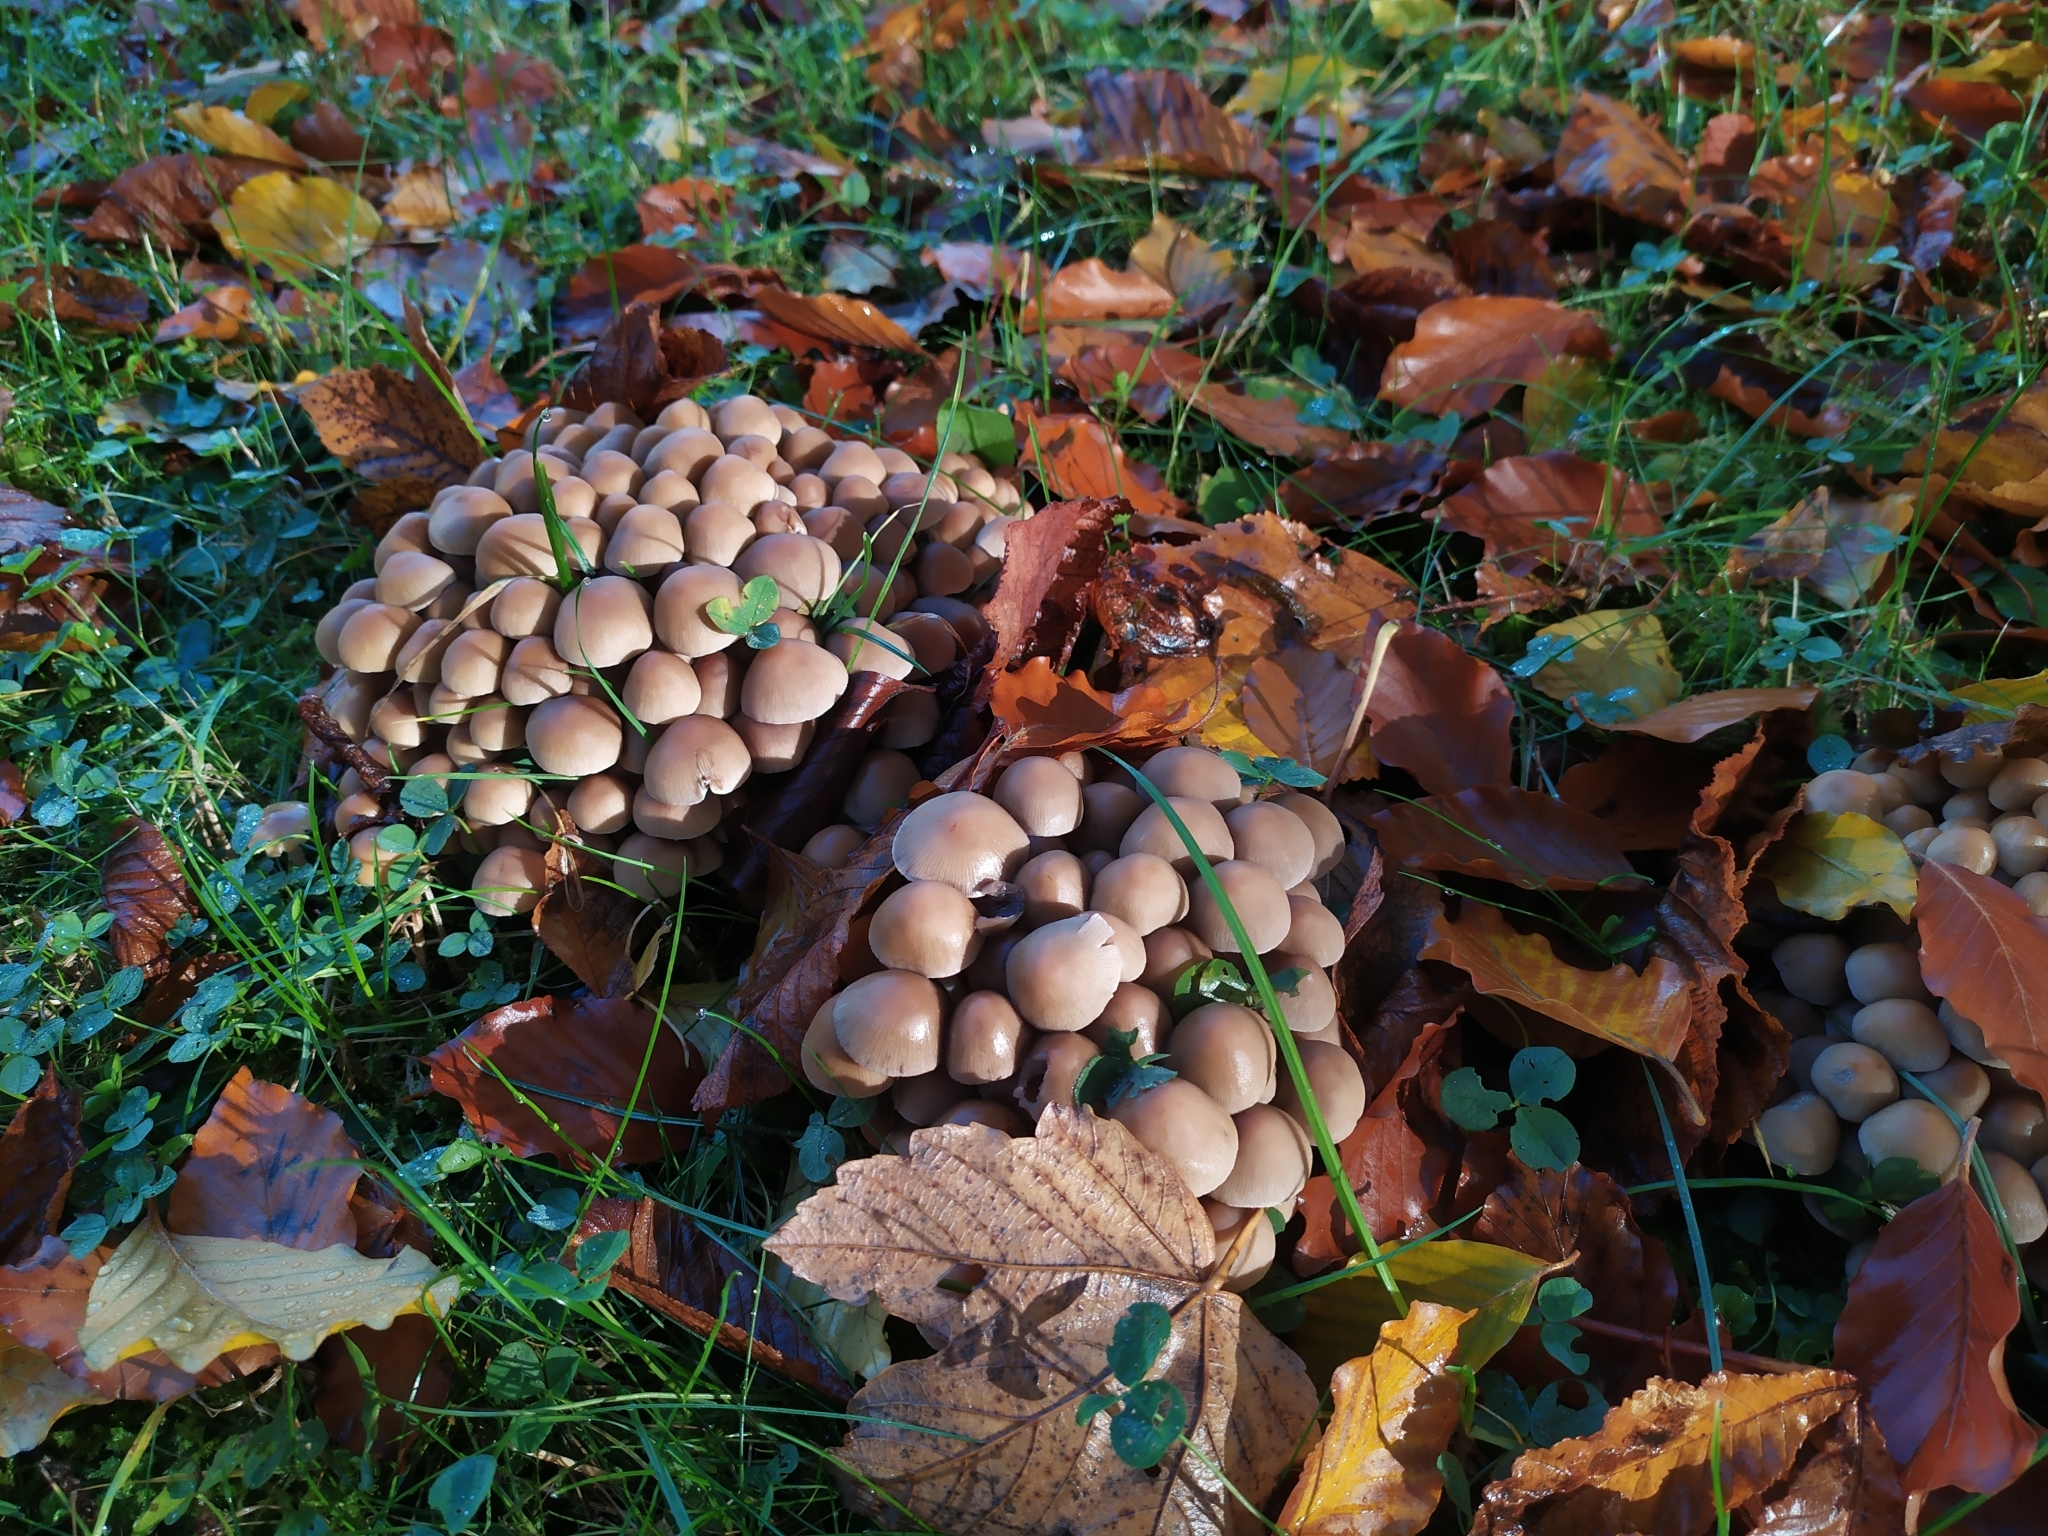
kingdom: Fungi
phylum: Basidiomycota
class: Agaricomycetes
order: Agaricales
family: Psathyrellaceae
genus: Britzelmayria
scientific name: Britzelmayria multipedata
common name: Clustered brittlestem
